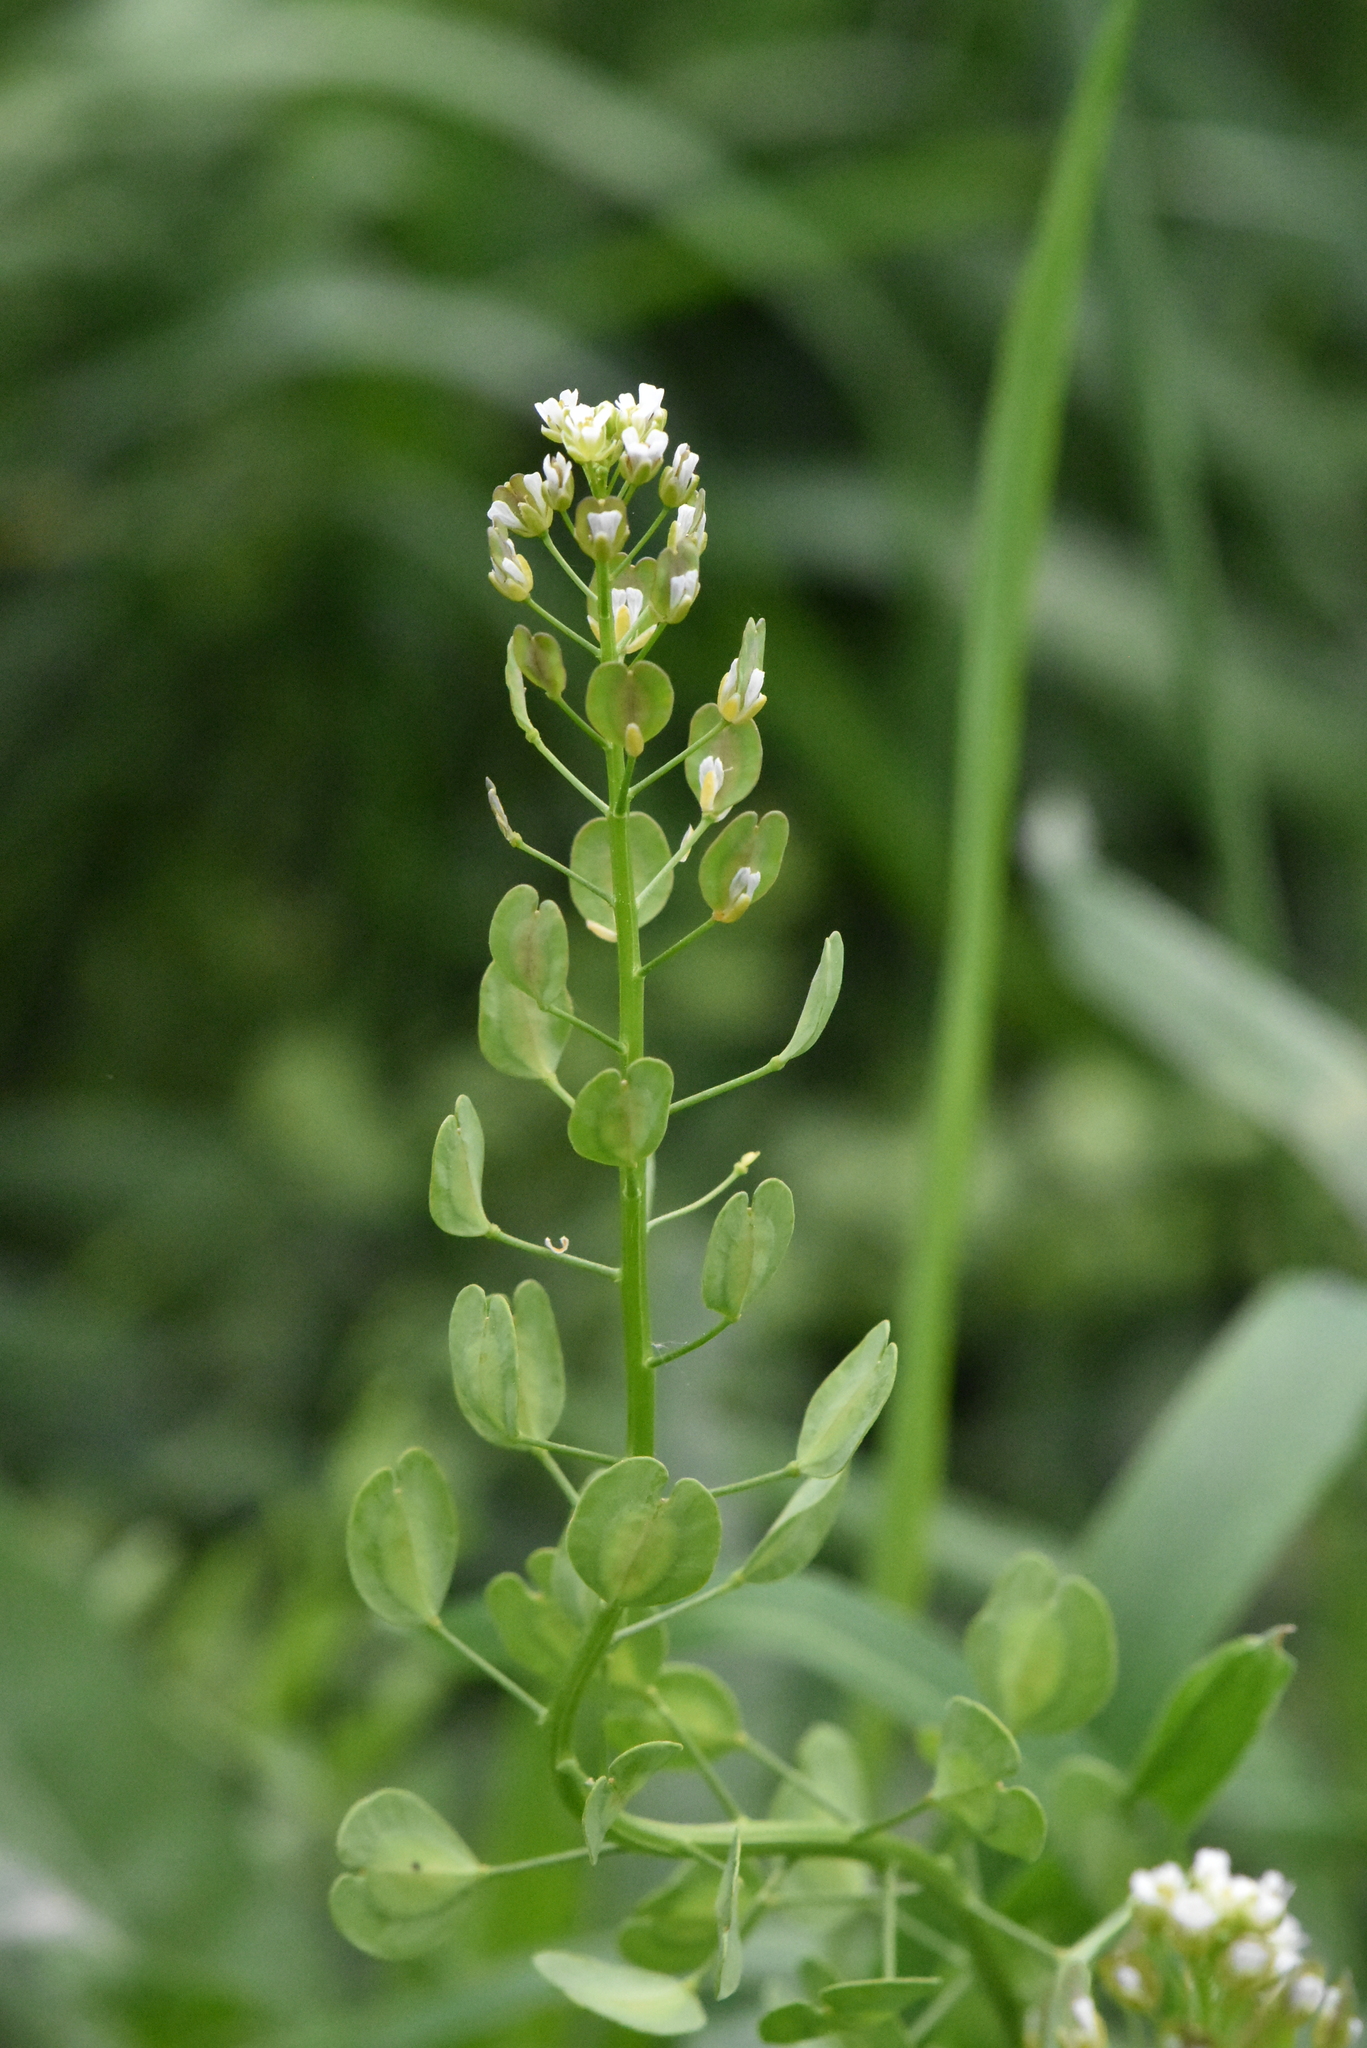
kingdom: Plantae
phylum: Tracheophyta
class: Magnoliopsida
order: Brassicales
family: Brassicaceae
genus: Thlaspi
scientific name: Thlaspi arvense
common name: Field pennycress
